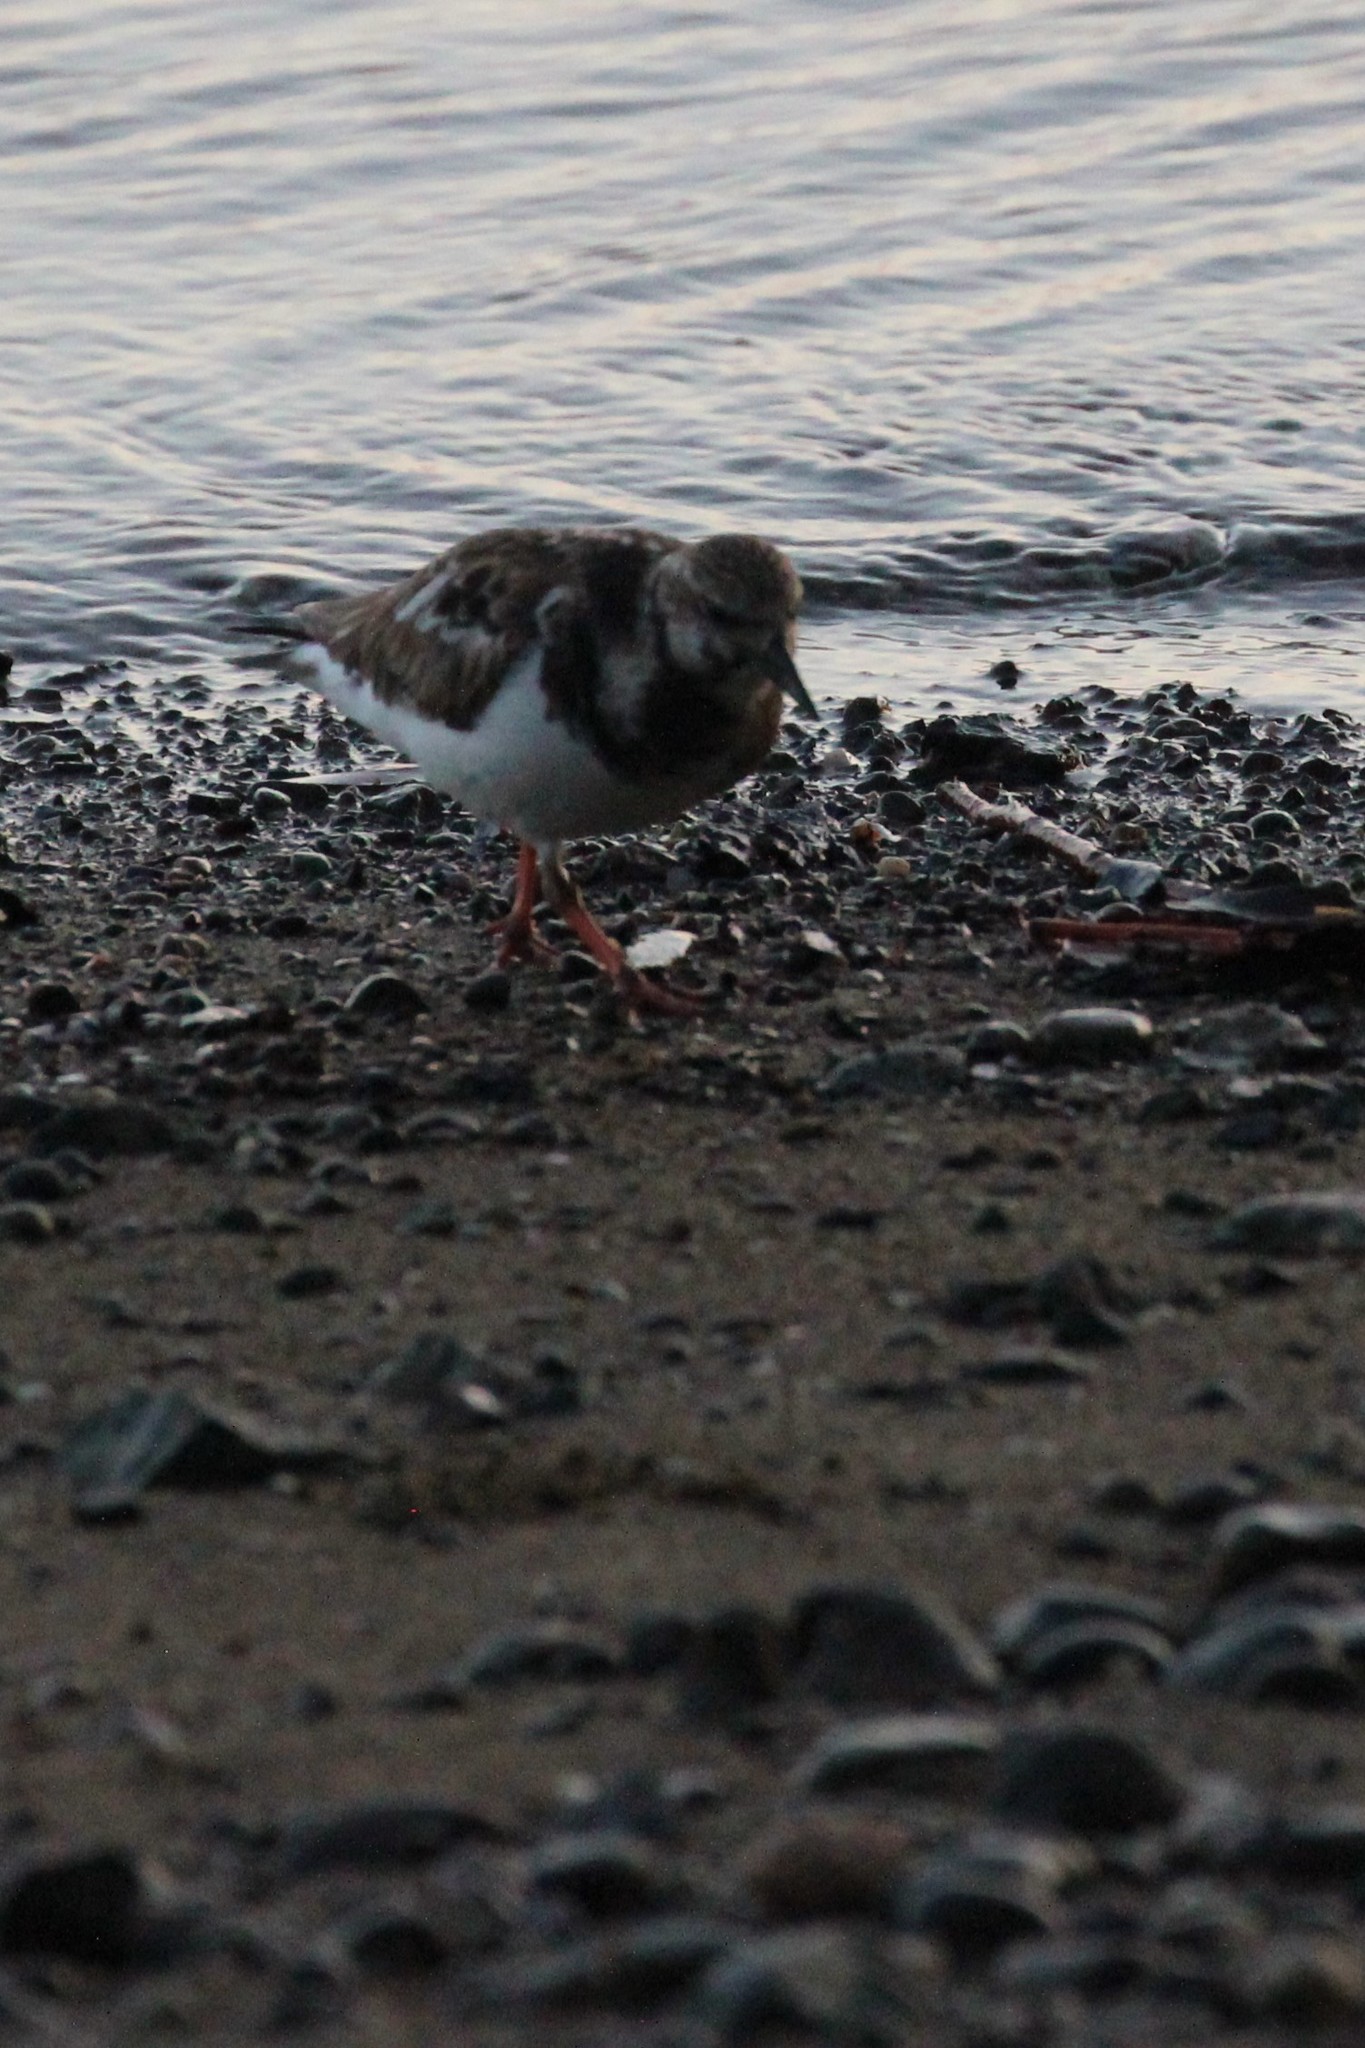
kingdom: Animalia
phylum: Chordata
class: Aves
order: Charadriiformes
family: Scolopacidae
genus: Arenaria
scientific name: Arenaria interpres
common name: Ruddy turnstone
